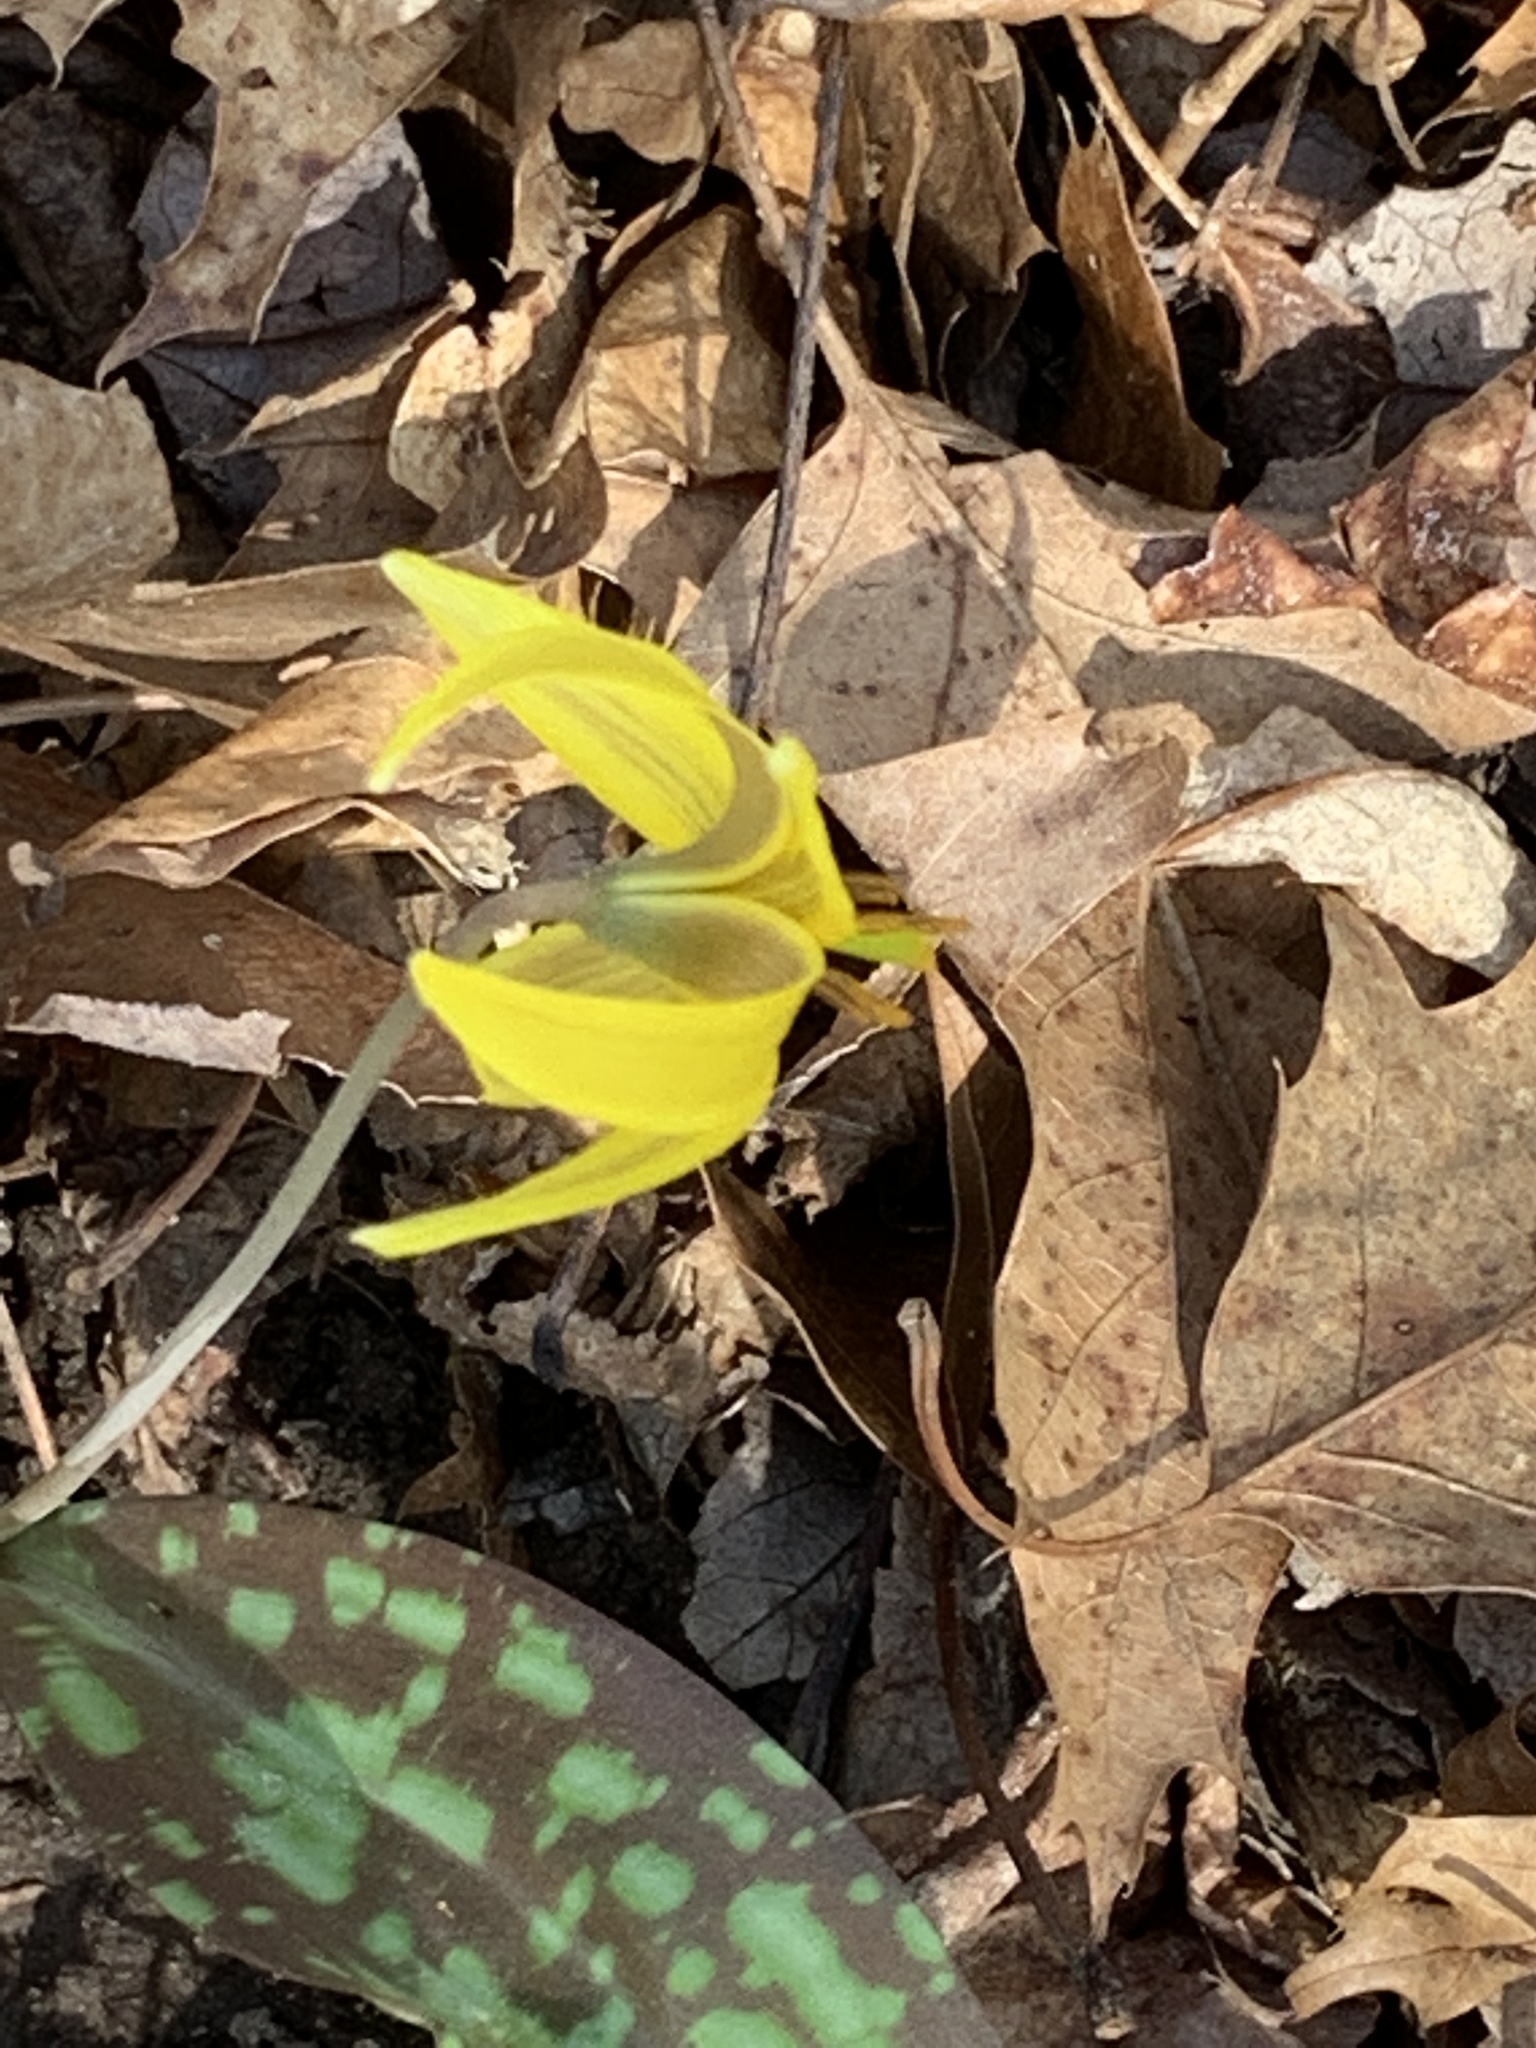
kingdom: Plantae
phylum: Tracheophyta
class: Liliopsida
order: Liliales
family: Liliaceae
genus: Erythronium
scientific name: Erythronium americanum
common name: Yellow adder's-tongue
